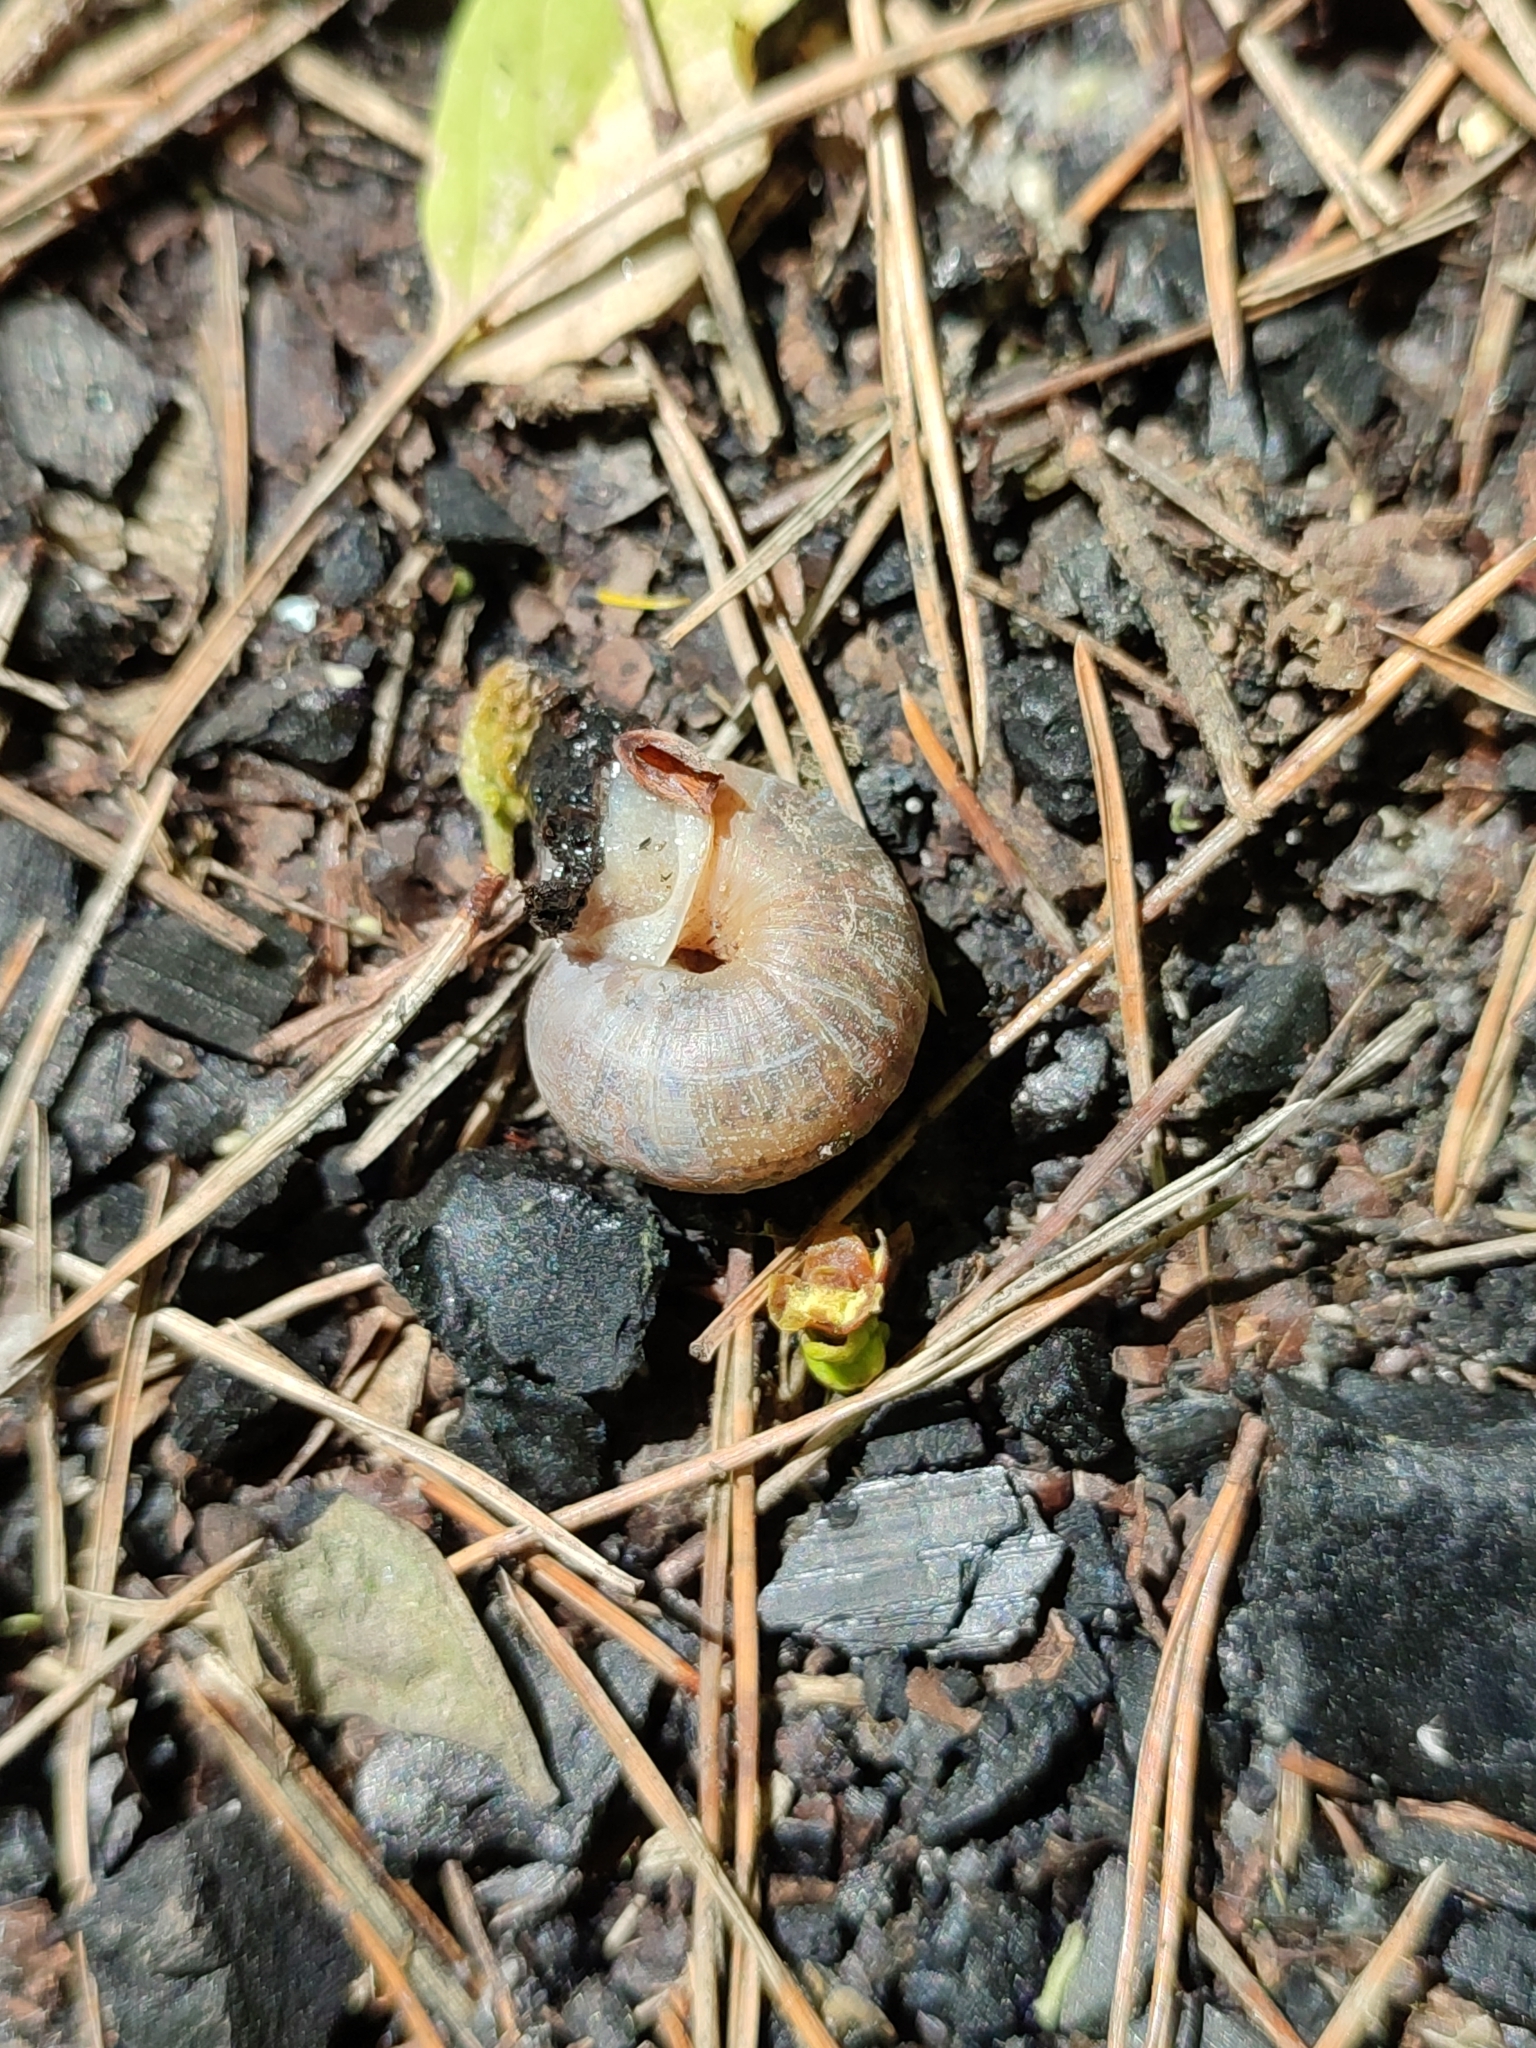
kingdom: Animalia
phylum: Mollusca
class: Gastropoda
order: Stylommatophora
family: Camaenidae
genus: Fruticicola
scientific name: Fruticicola fruticum
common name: Bush snail
